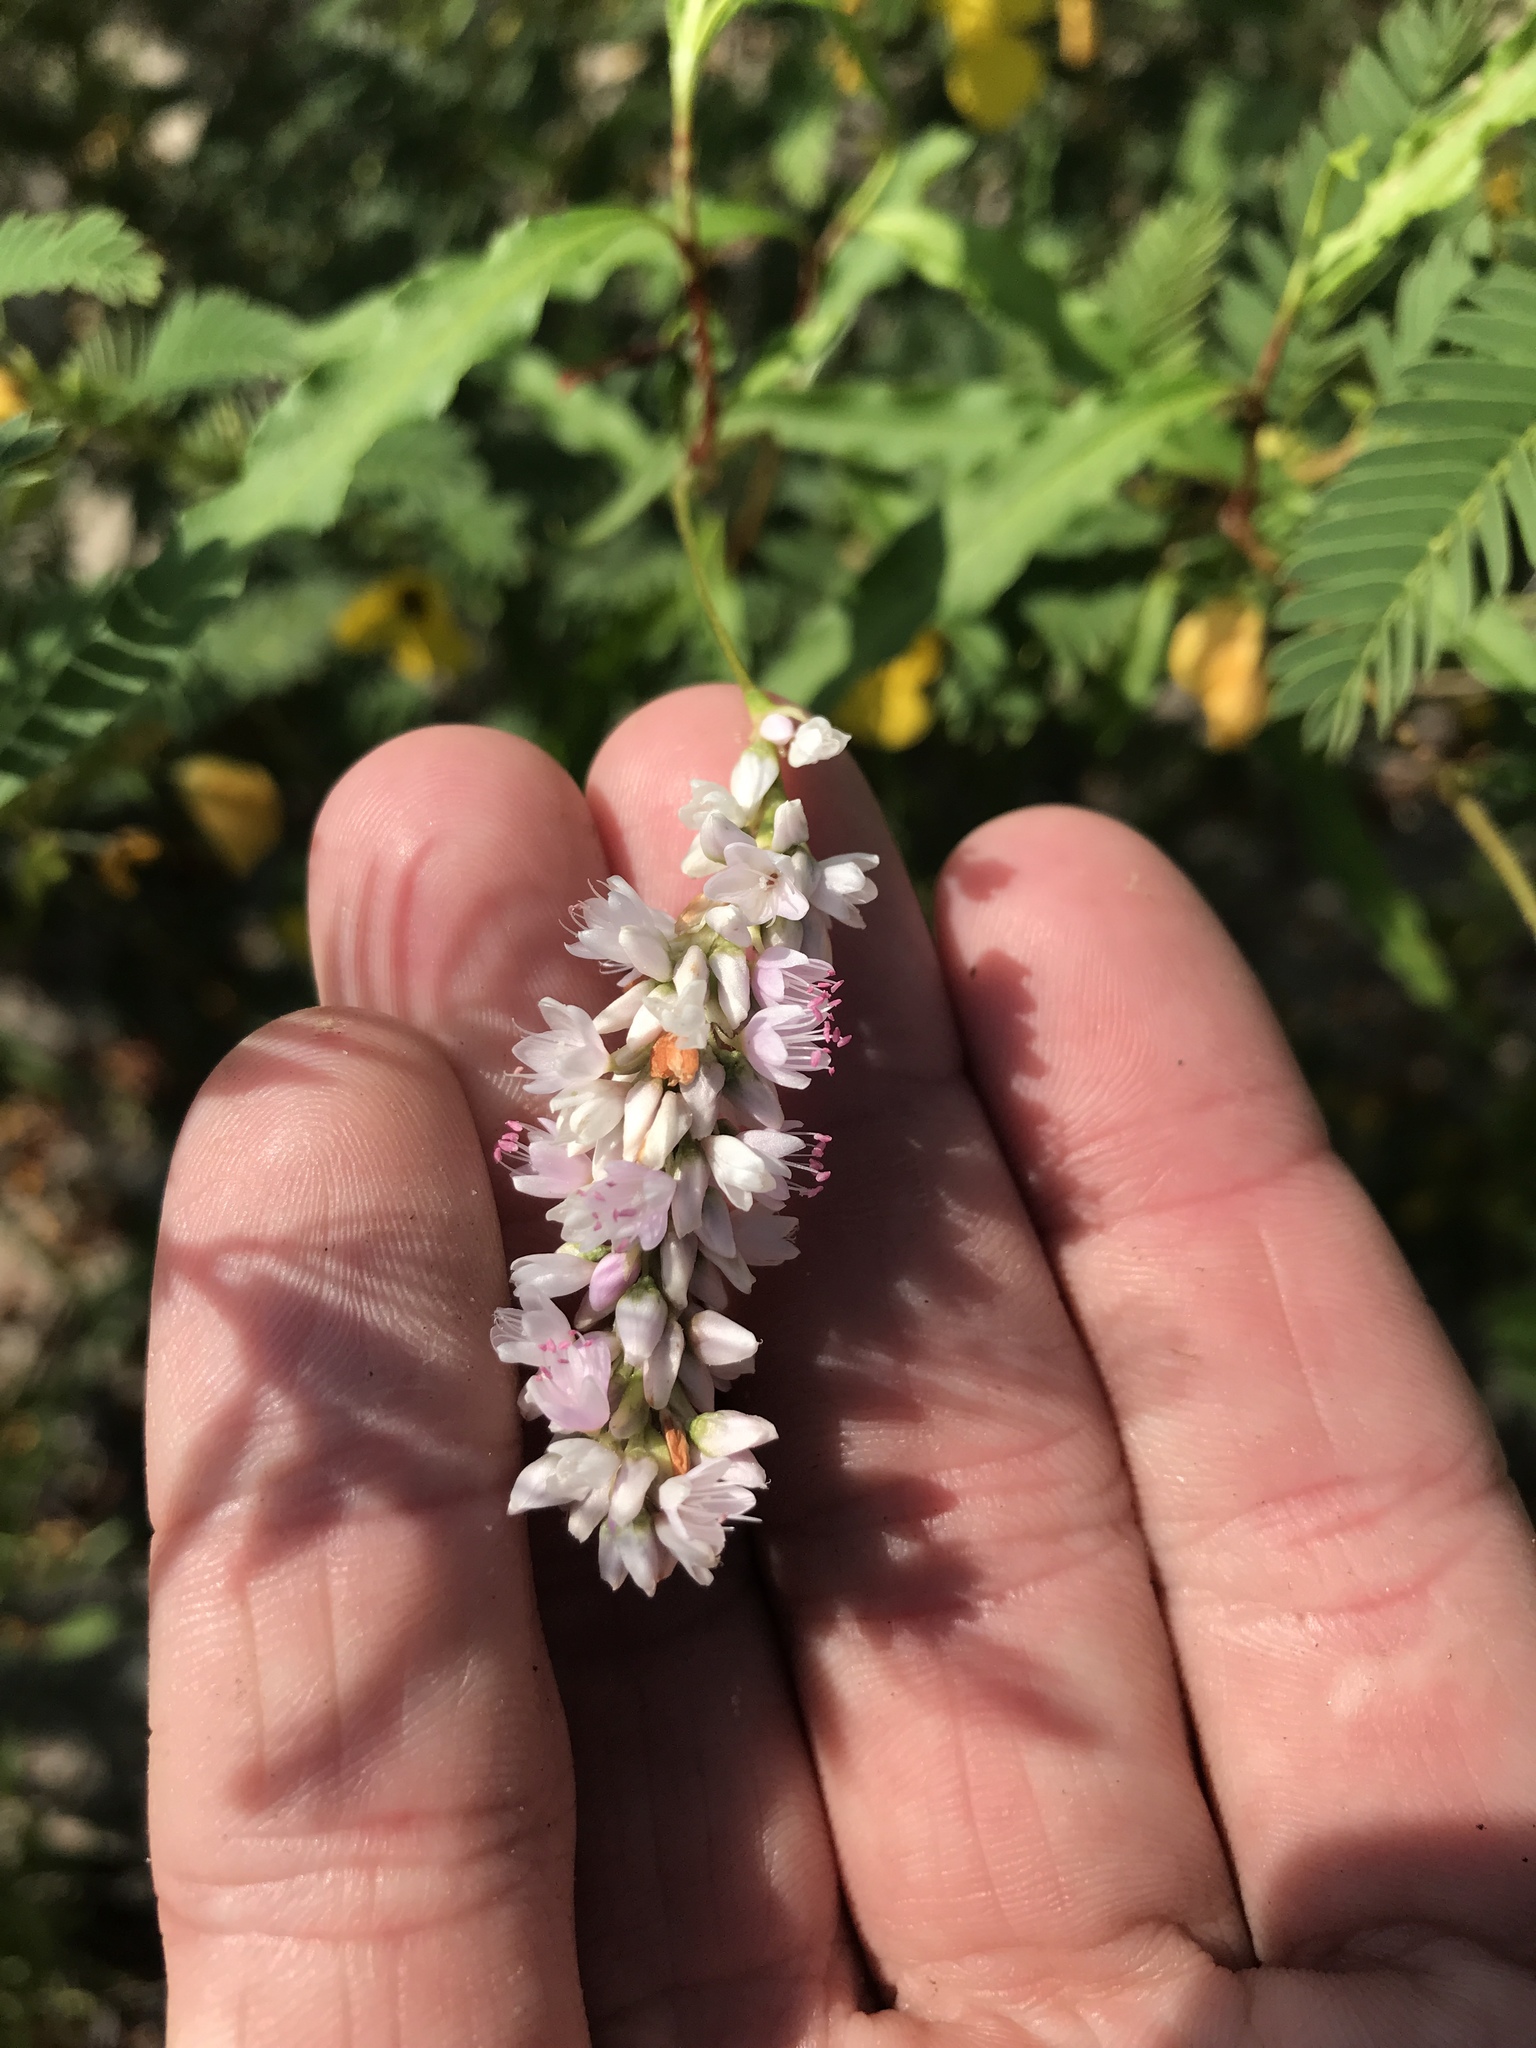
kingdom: Plantae
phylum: Tracheophyta
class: Magnoliopsida
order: Caryophyllales
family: Polygonaceae
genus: Persicaria
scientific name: Persicaria bicornis
